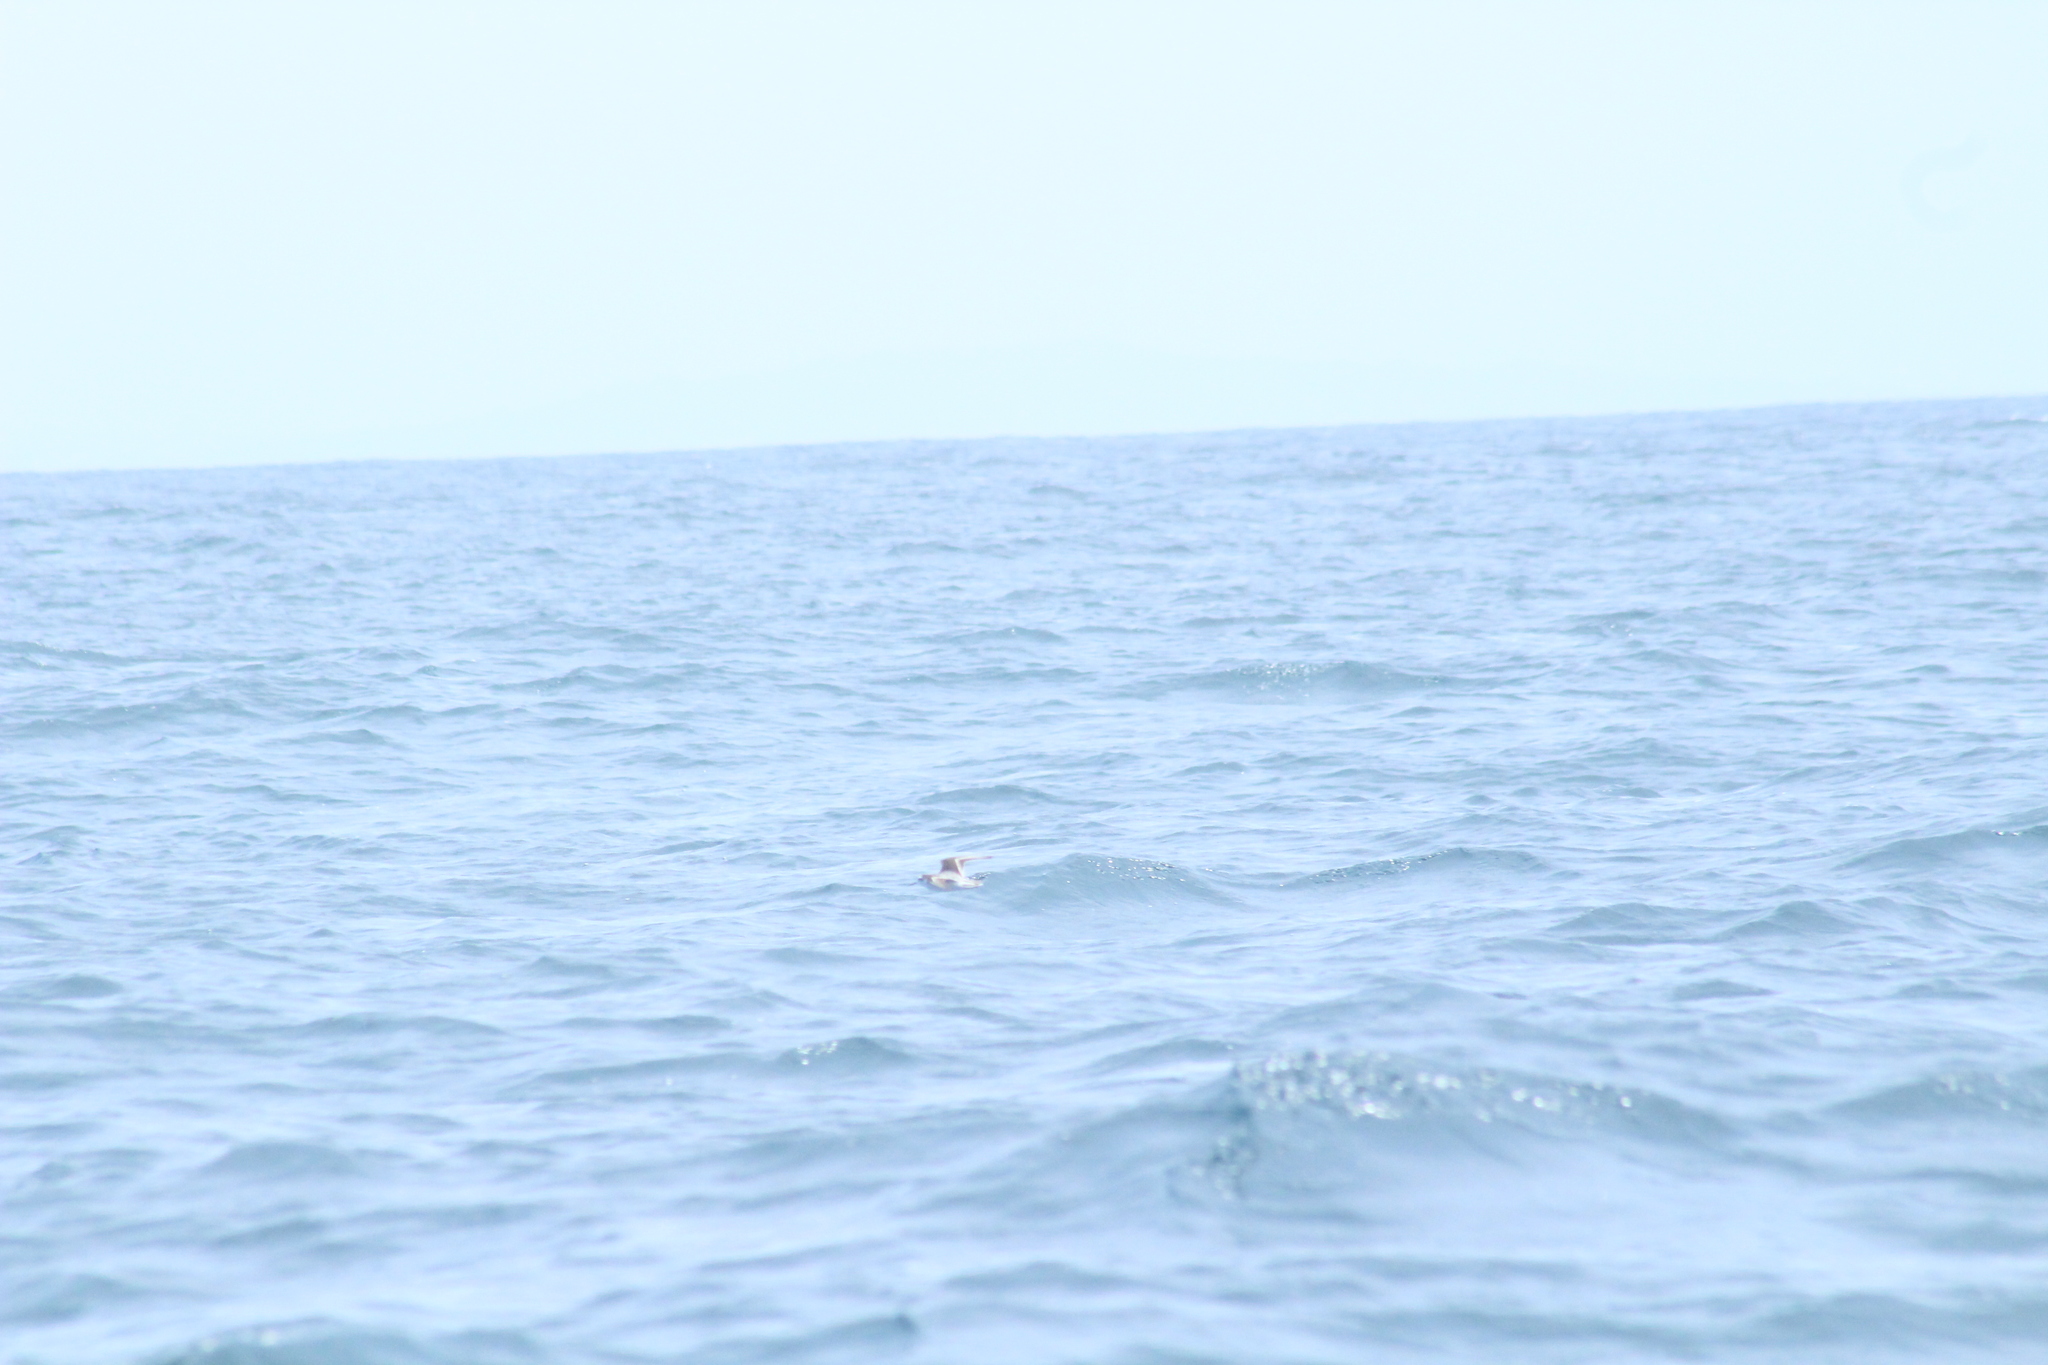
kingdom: Animalia
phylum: Chordata
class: Aves
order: Charadriiformes
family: Scolopacidae
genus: Phalaropus
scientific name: Phalaropus lobatus
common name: Red-necked phalarope
